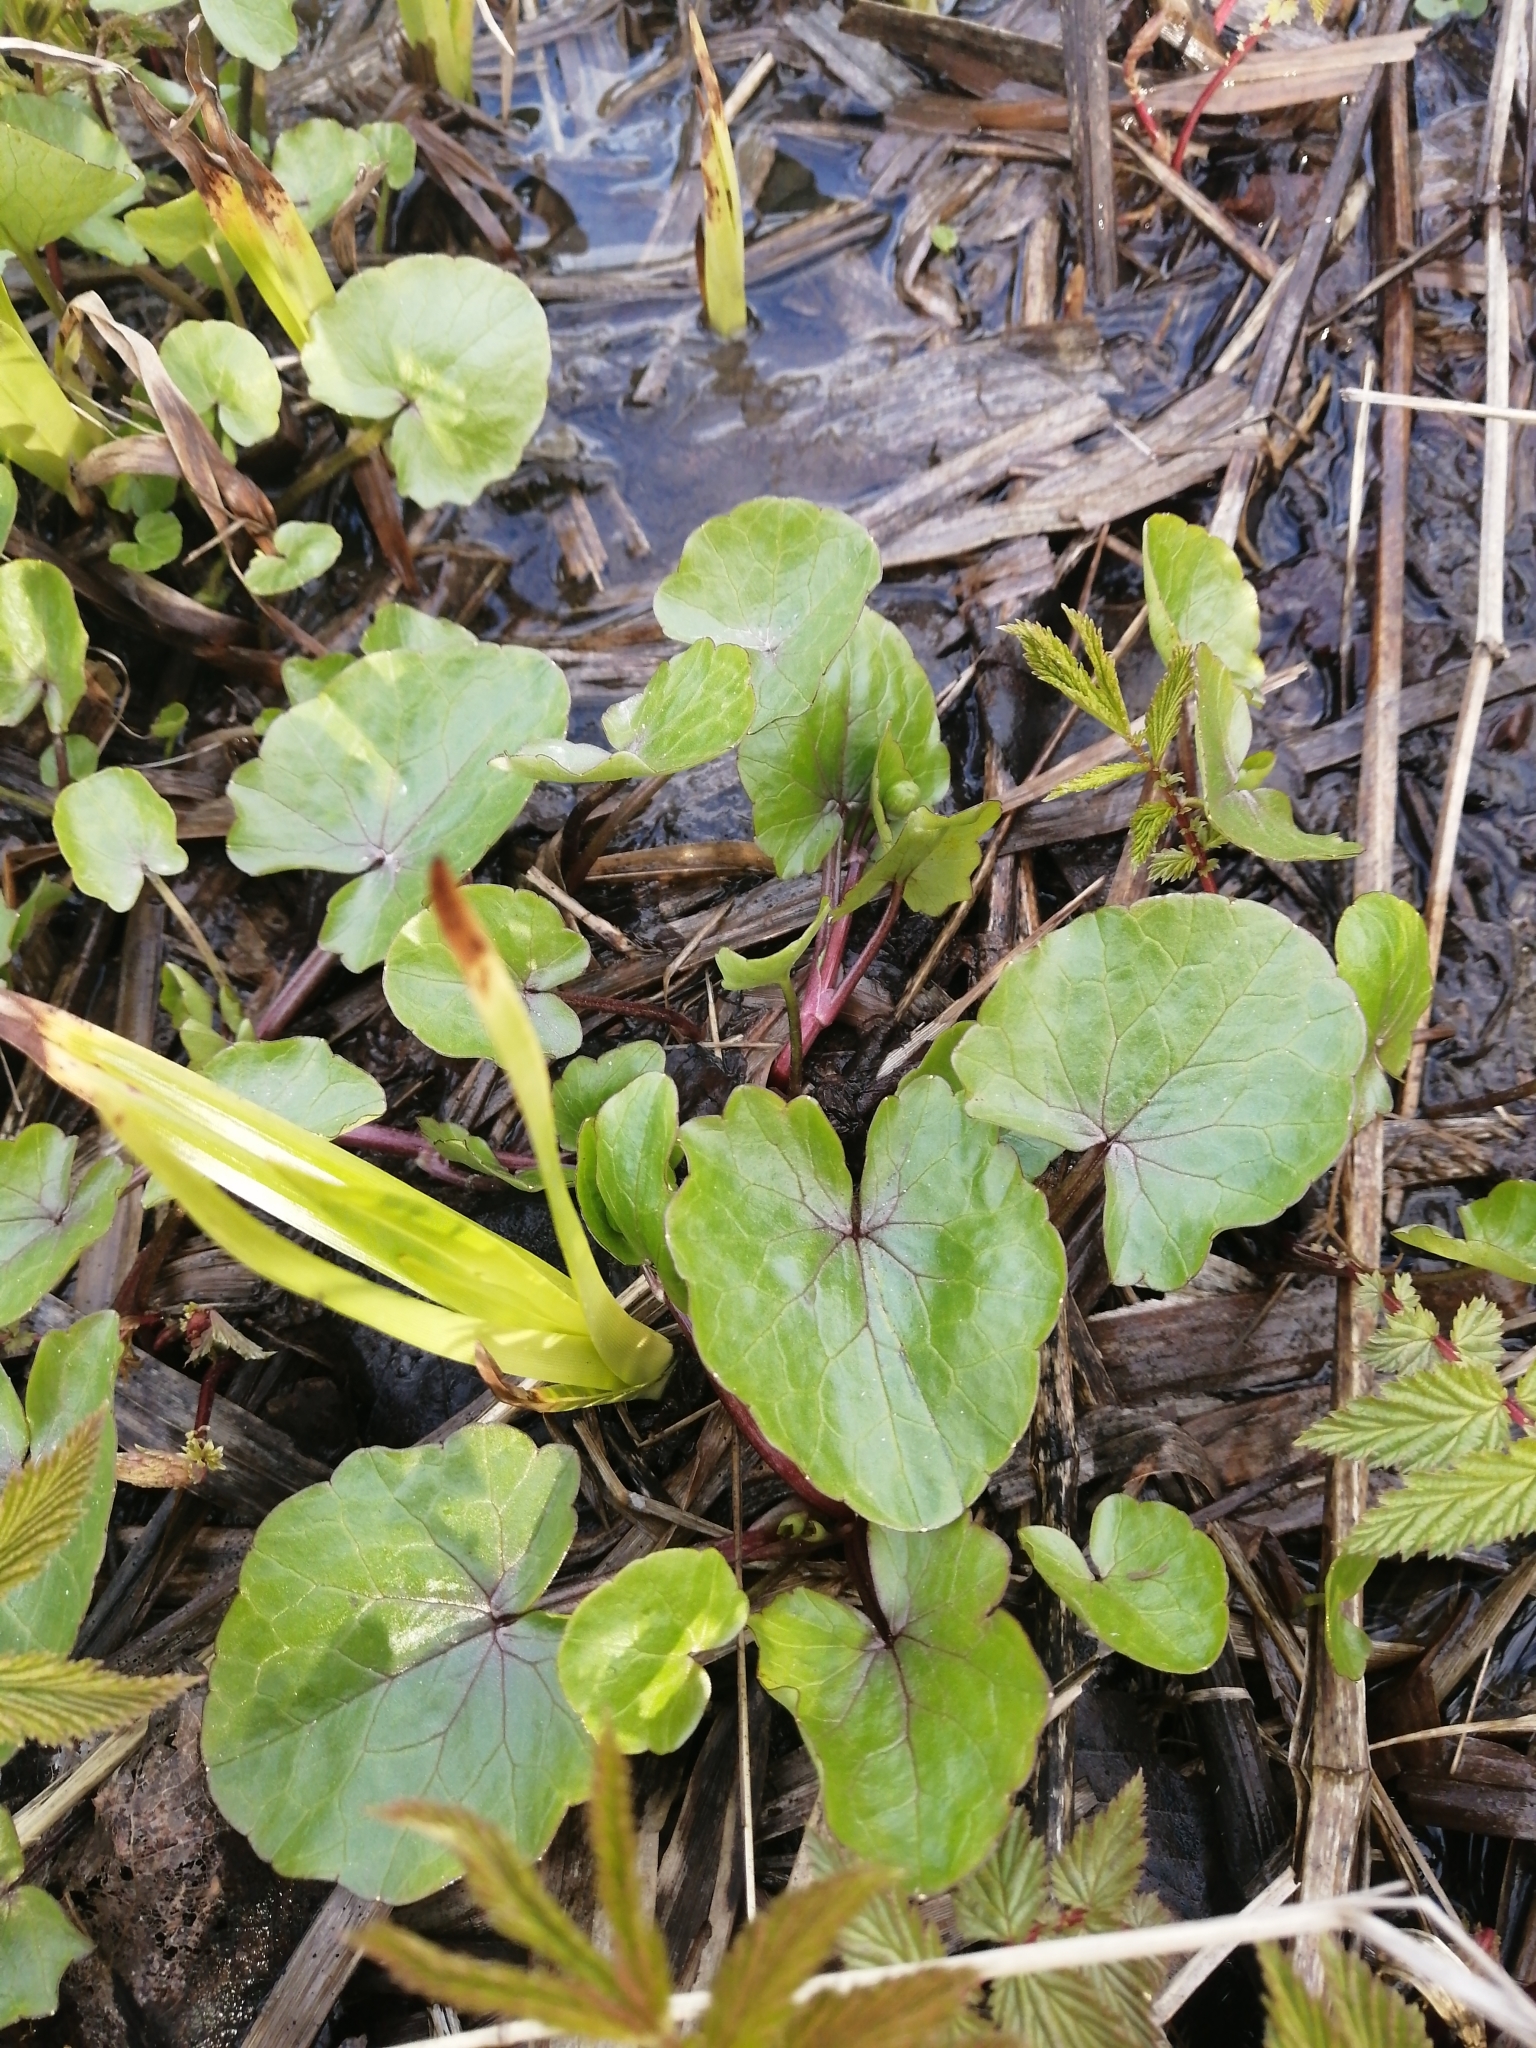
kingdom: Plantae
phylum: Tracheophyta
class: Magnoliopsida
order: Ranunculales
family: Ranunculaceae
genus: Ficaria
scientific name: Ficaria verna
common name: Lesser celandine
